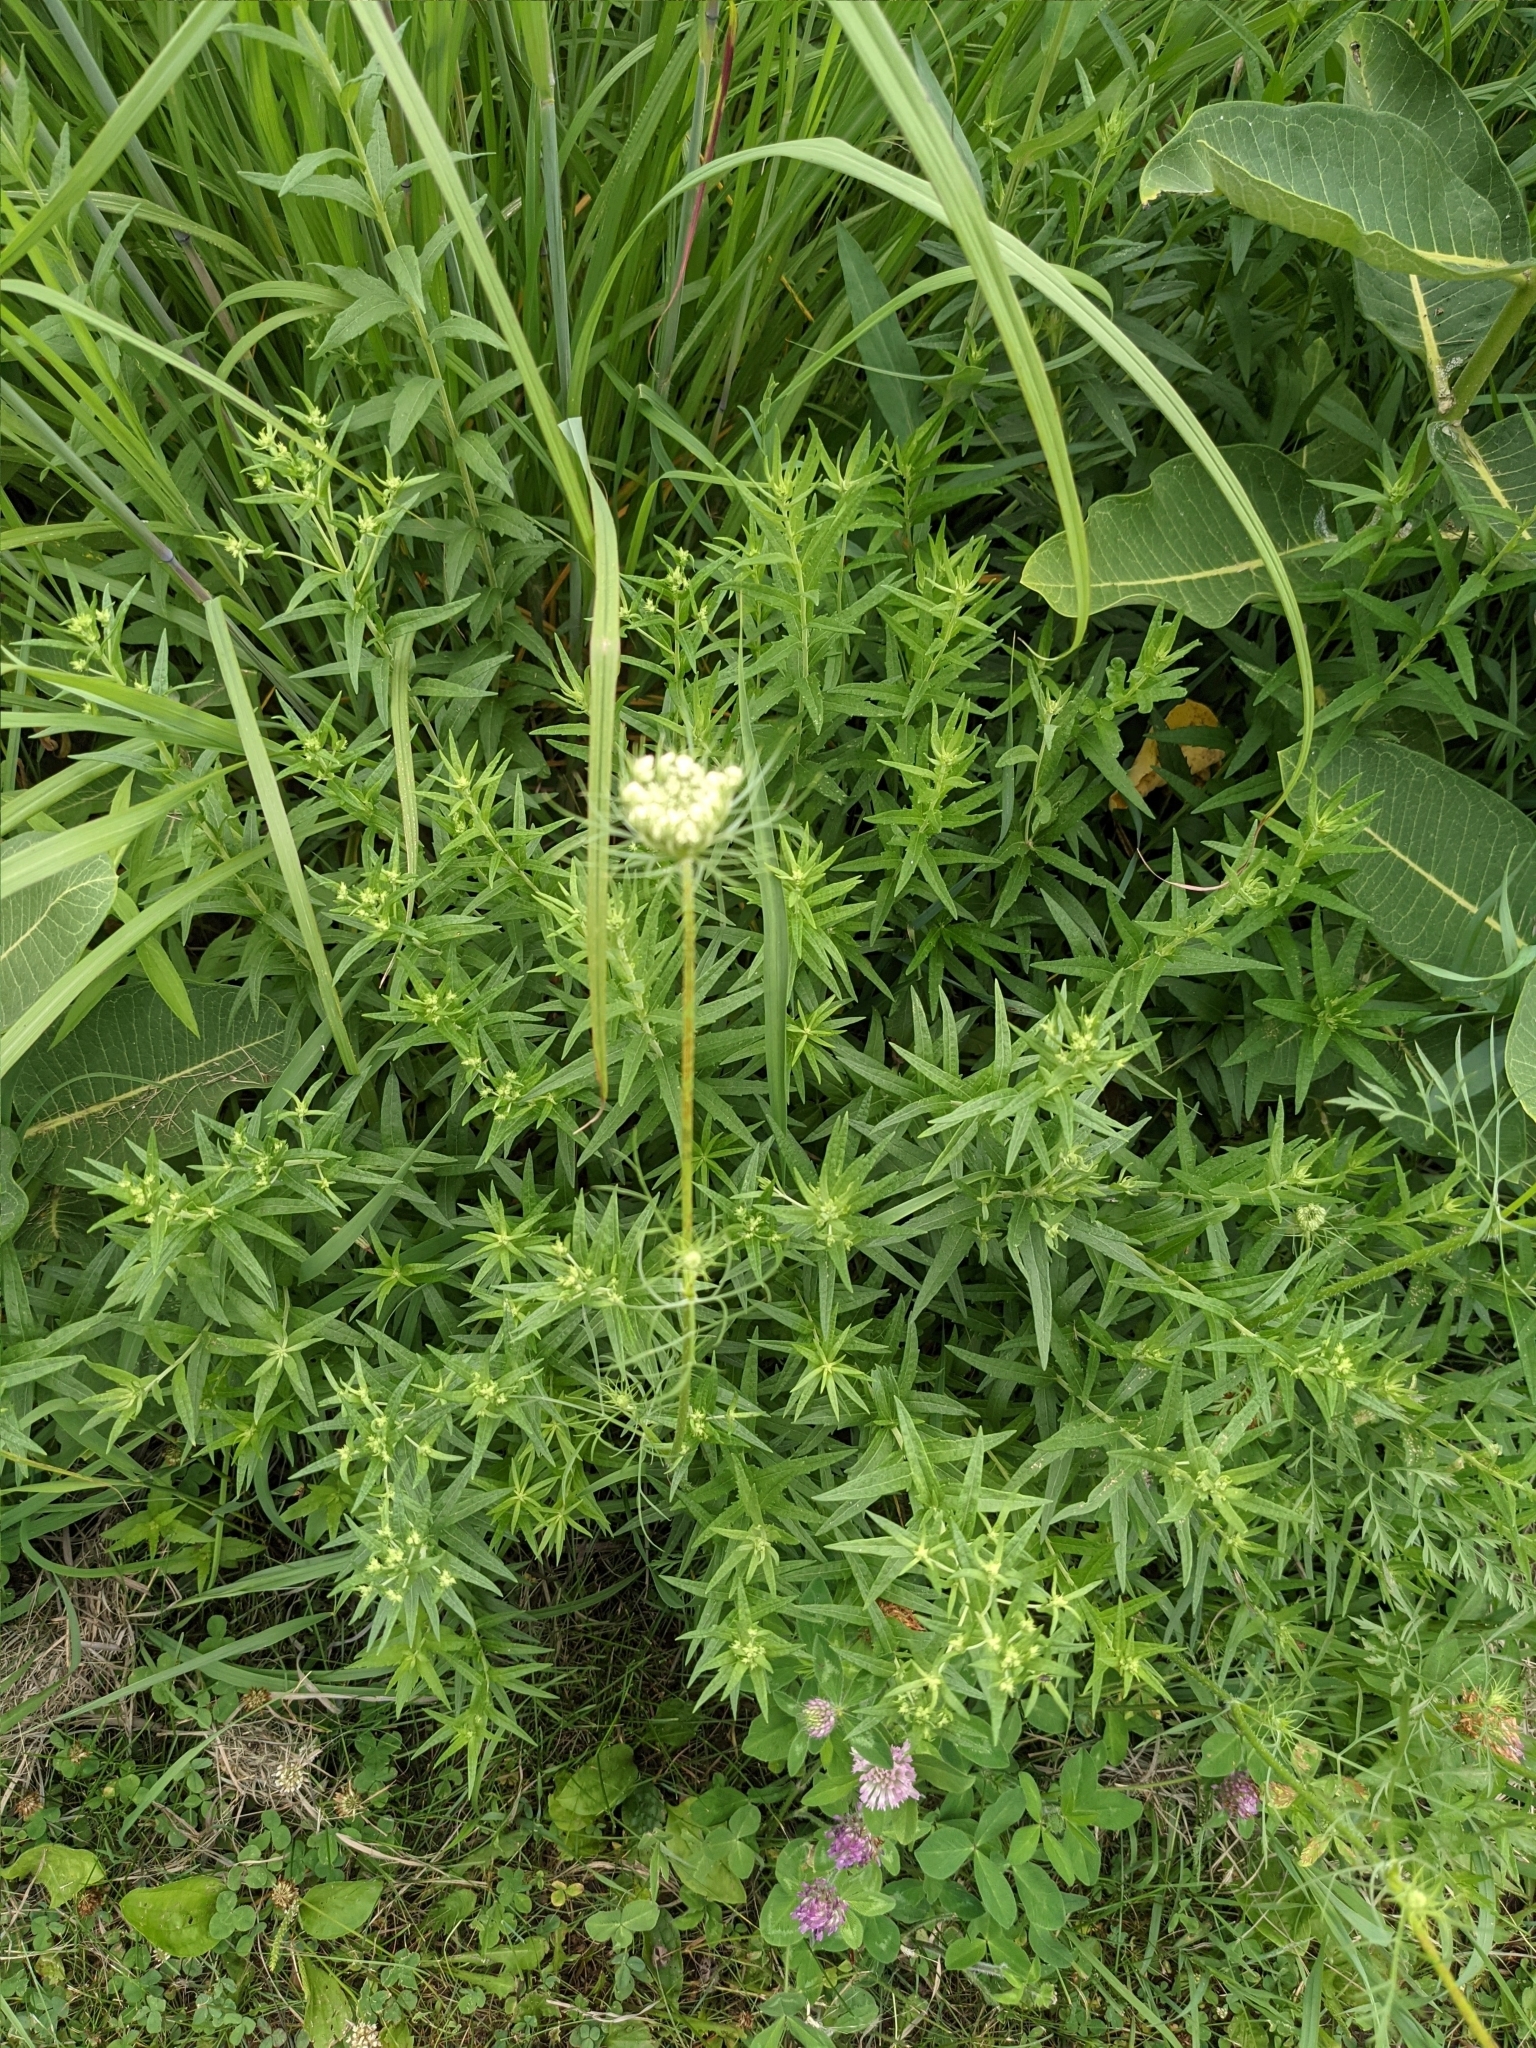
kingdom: Plantae
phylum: Tracheophyta
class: Magnoliopsida
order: Apiales
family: Apiaceae
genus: Daucus
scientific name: Daucus carota
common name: Wild carrot
